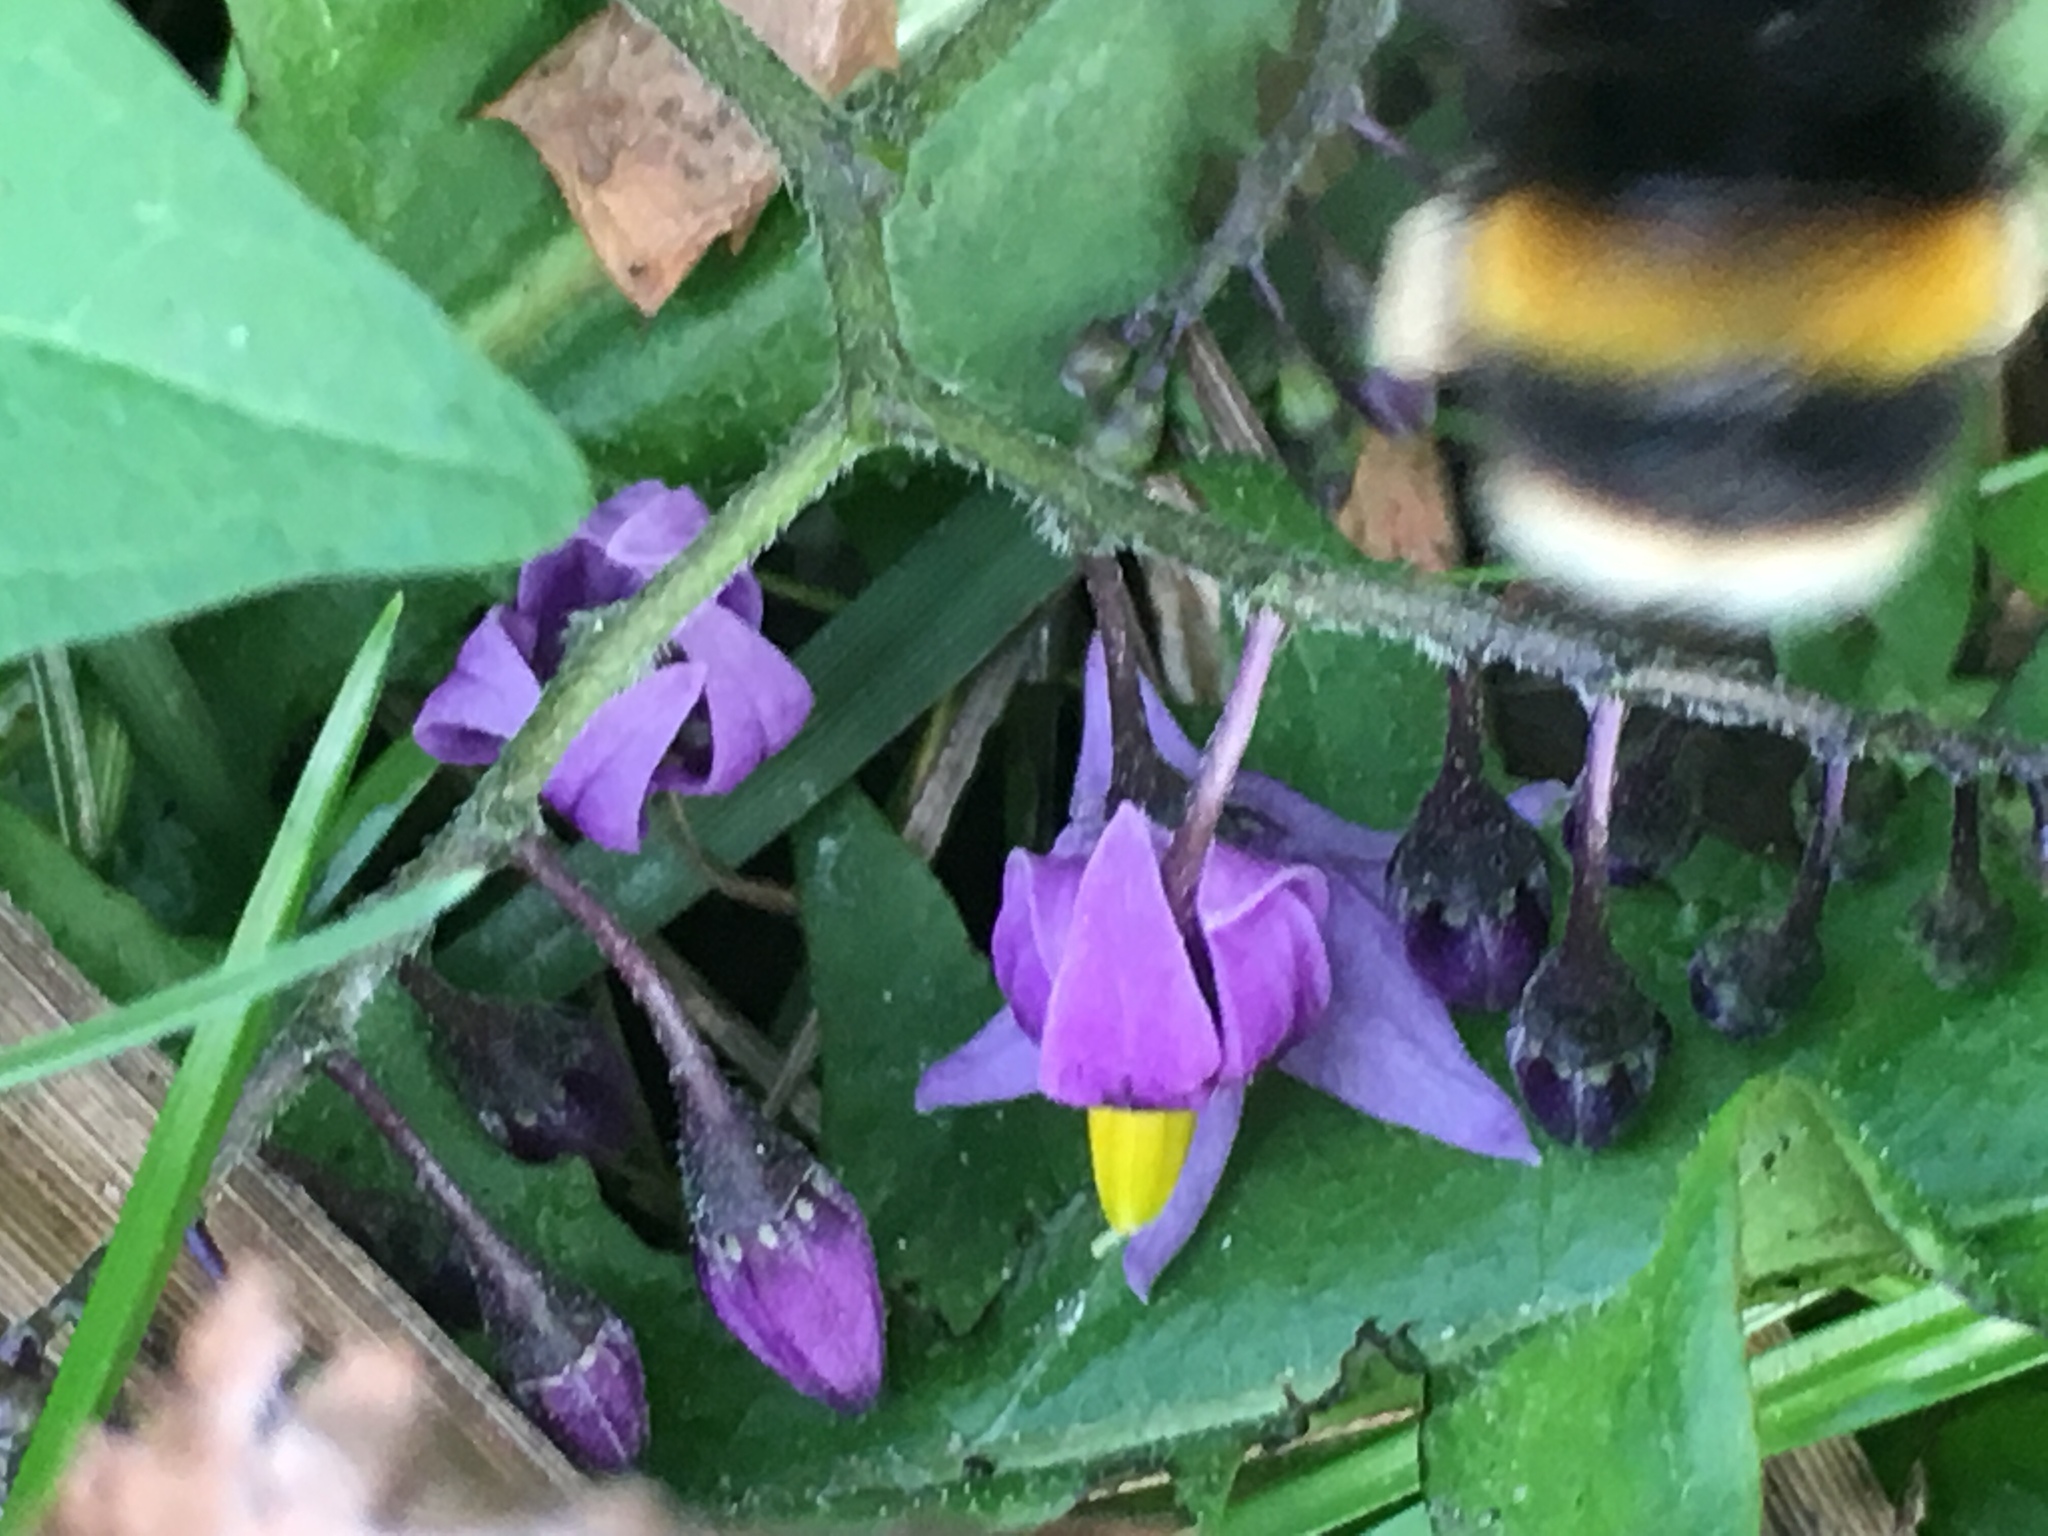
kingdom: Animalia
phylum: Arthropoda
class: Insecta
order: Hymenoptera
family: Apidae
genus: Bombus
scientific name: Bombus terrestris
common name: Buff-tailed bumblebee
